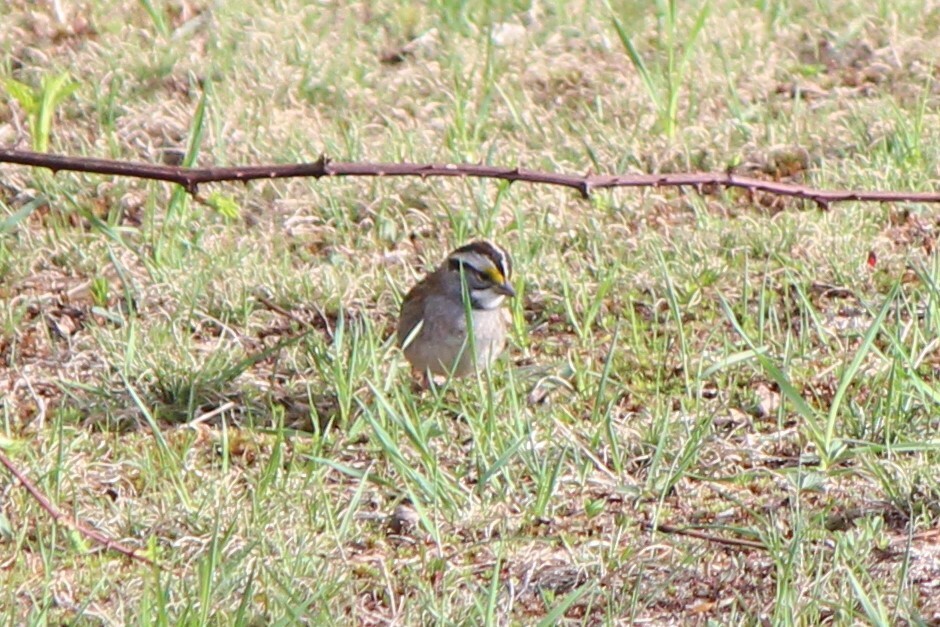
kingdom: Animalia
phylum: Chordata
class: Aves
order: Passeriformes
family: Passerellidae
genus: Zonotrichia
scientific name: Zonotrichia albicollis
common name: White-throated sparrow
